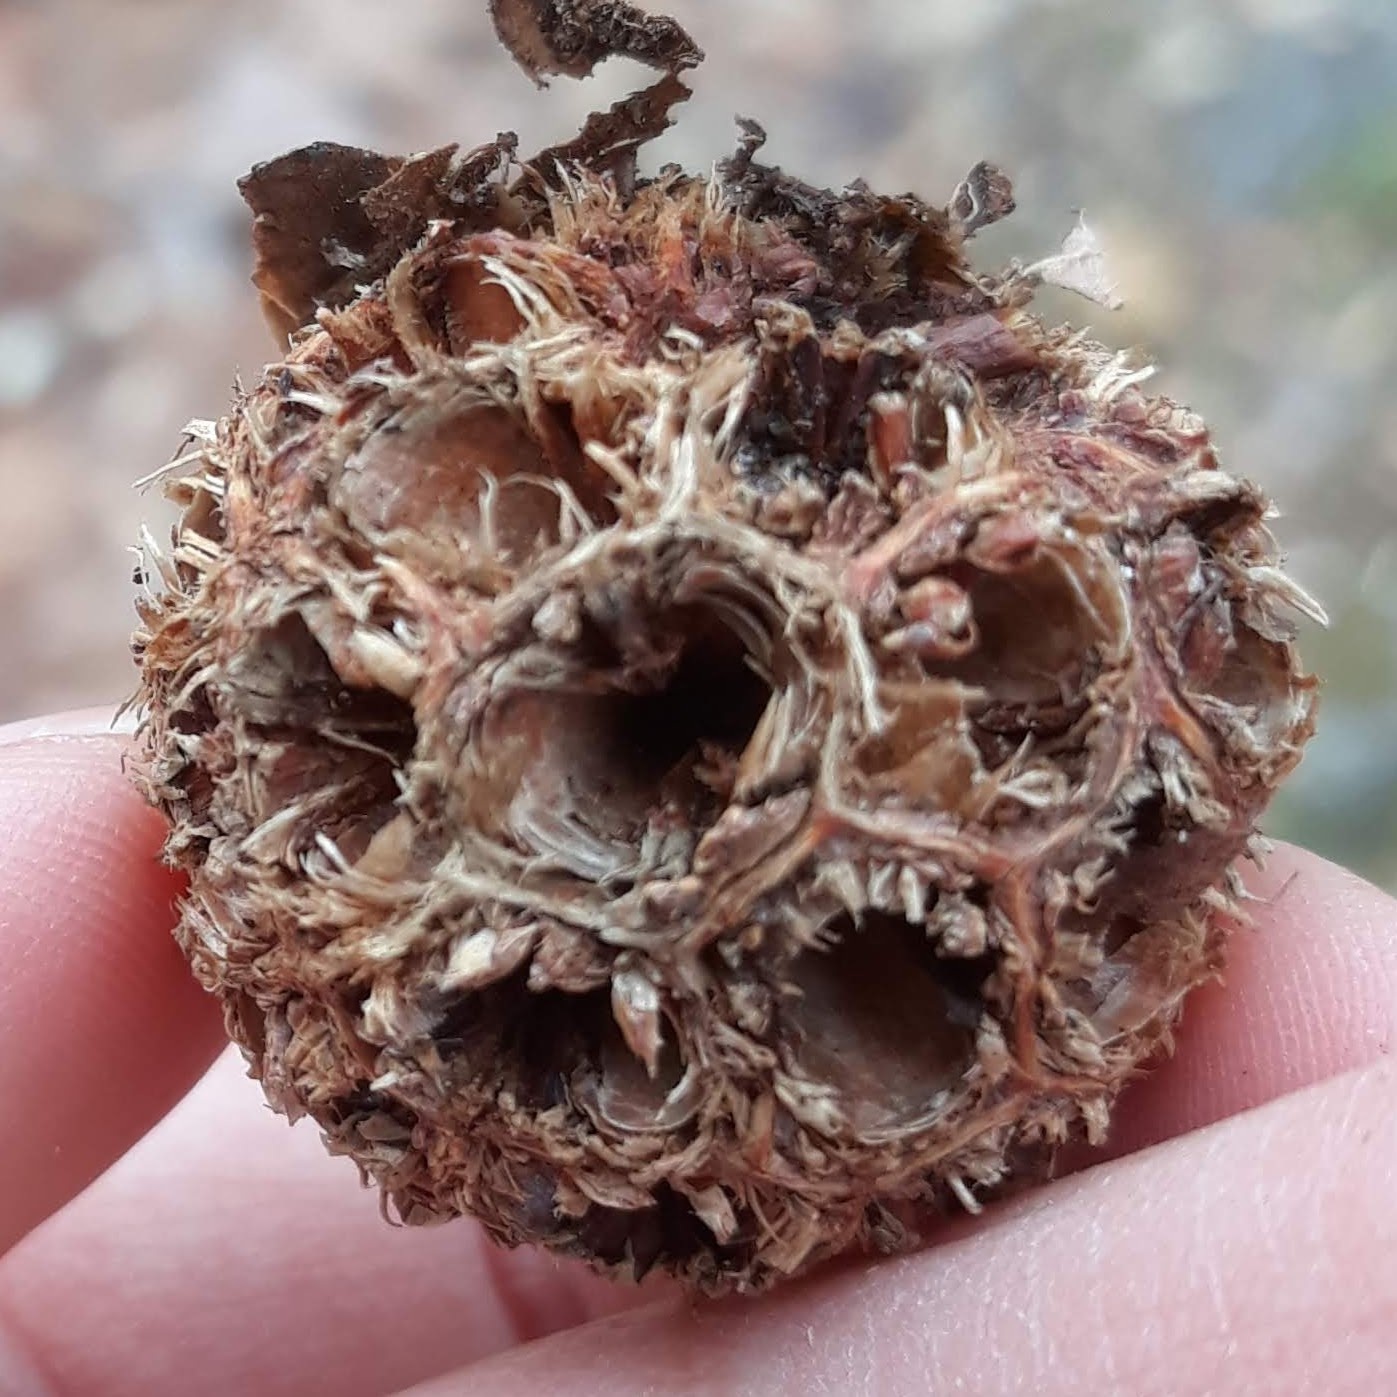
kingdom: Plantae
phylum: Tracheophyta
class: Magnoliopsida
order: Saxifragales
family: Altingiaceae
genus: Liquidambar
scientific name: Liquidambar styraciflua
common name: Sweet gum
